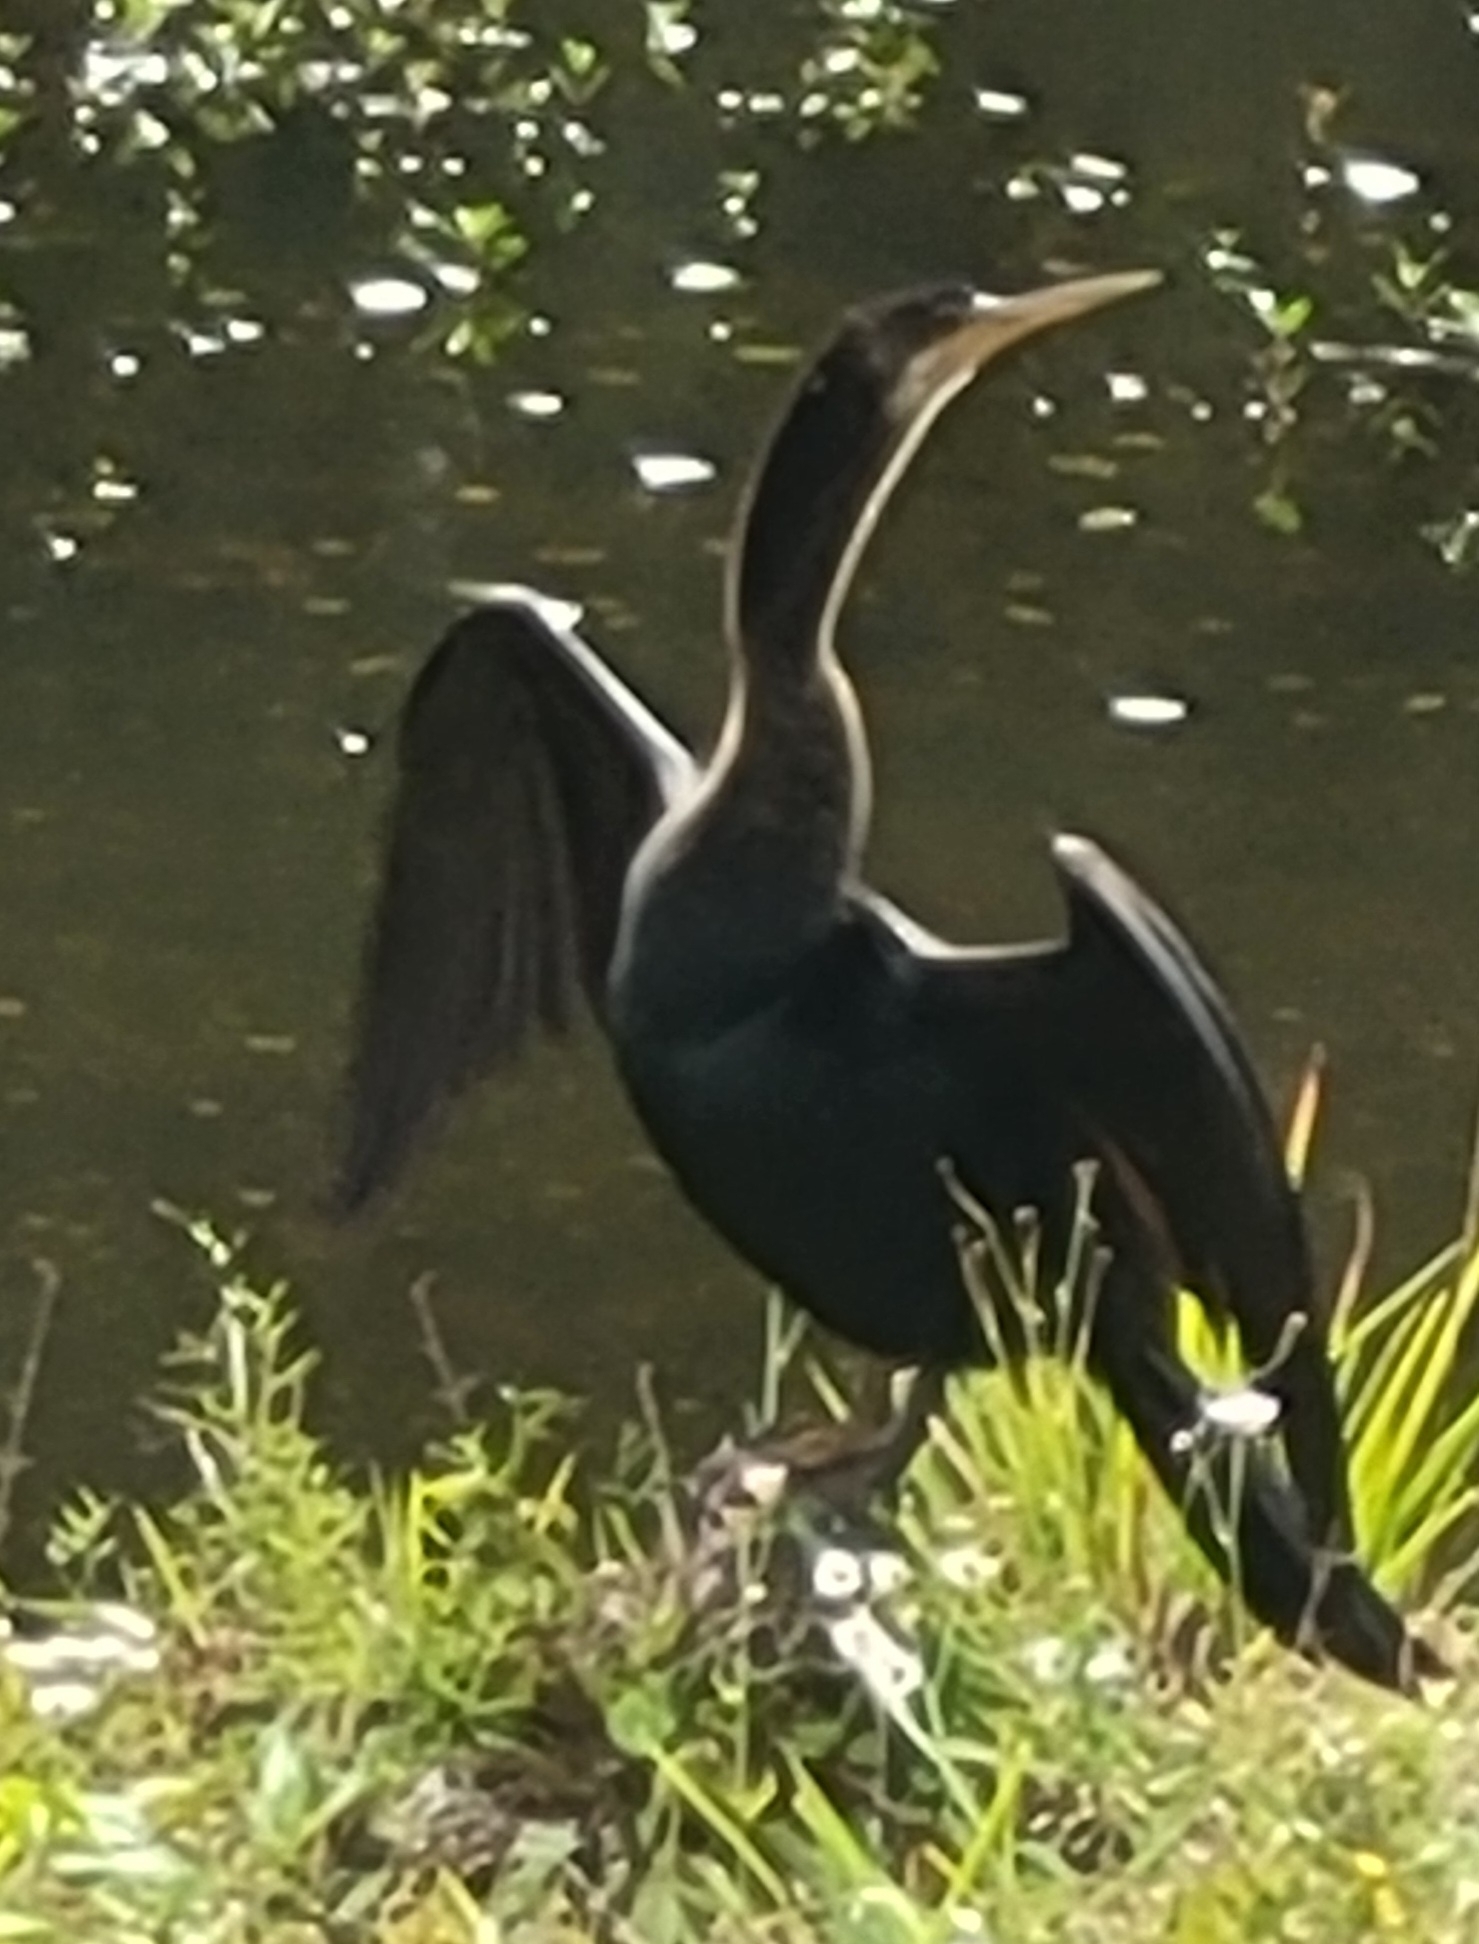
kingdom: Animalia
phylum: Chordata
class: Aves
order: Suliformes
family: Anhingidae
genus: Anhinga
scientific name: Anhinga anhinga
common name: Anhinga
